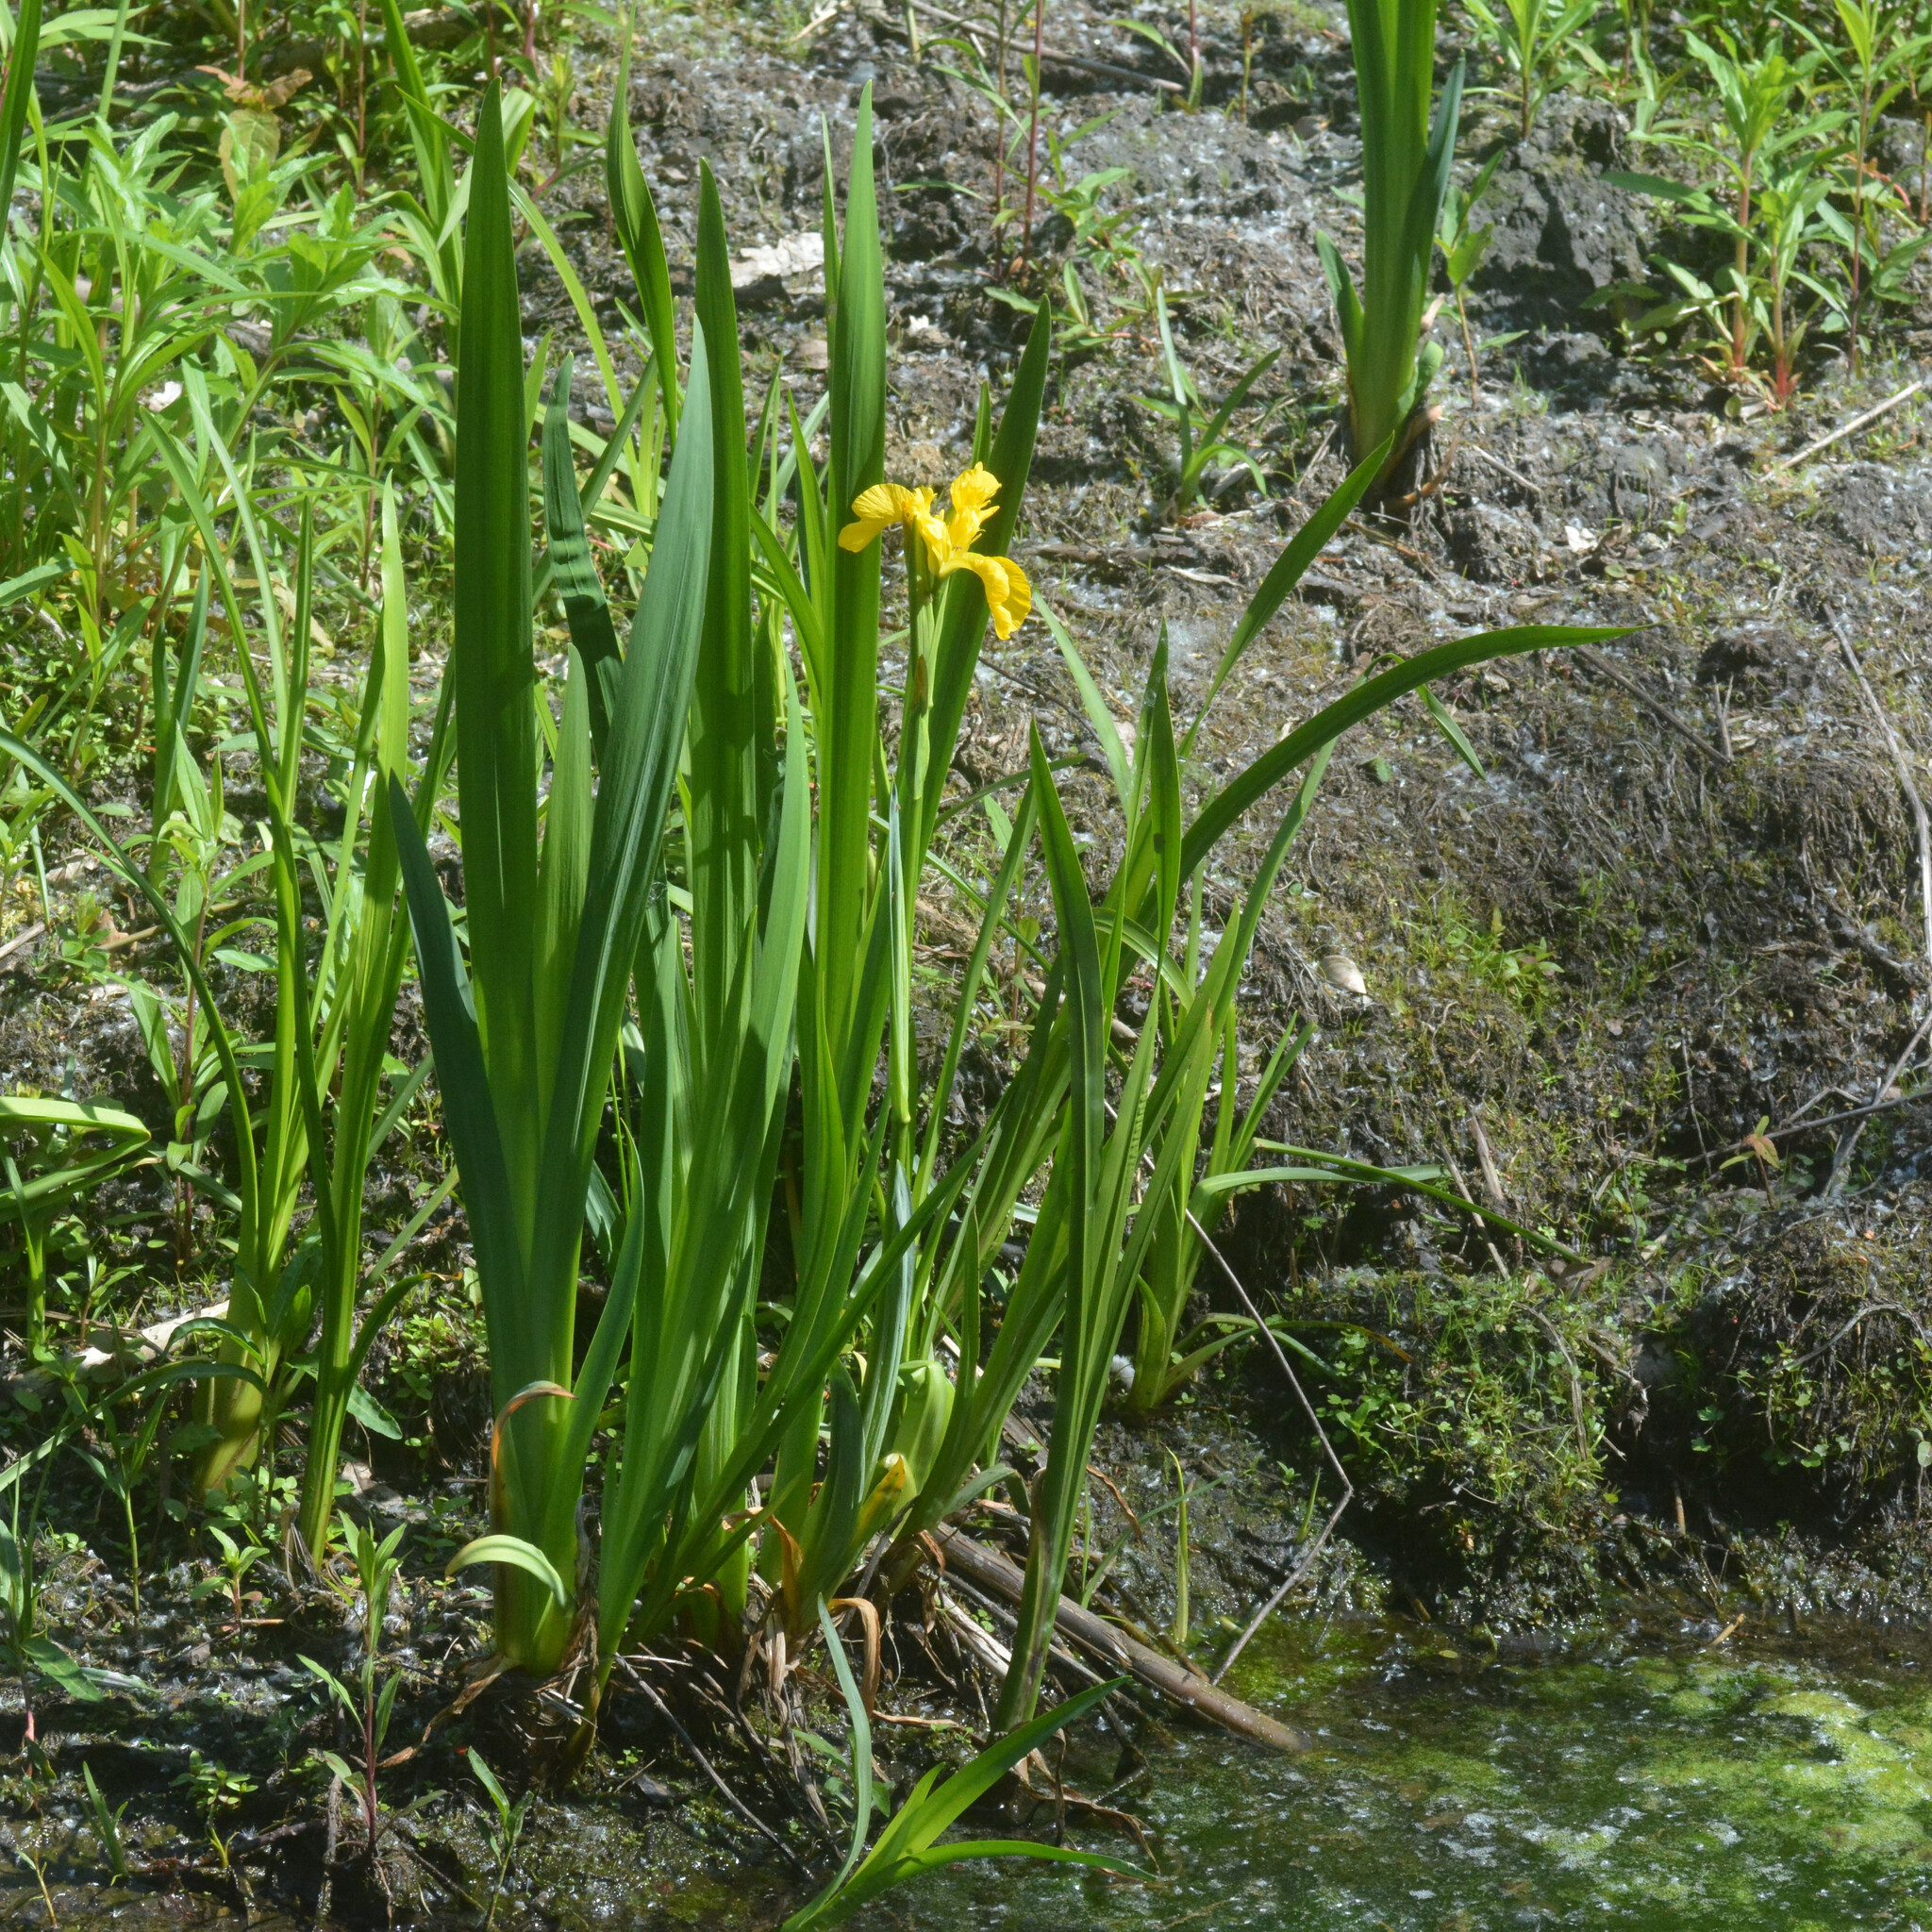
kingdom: Plantae
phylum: Tracheophyta
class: Liliopsida
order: Asparagales
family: Iridaceae
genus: Iris
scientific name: Iris pseudacorus
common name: Yellow flag
